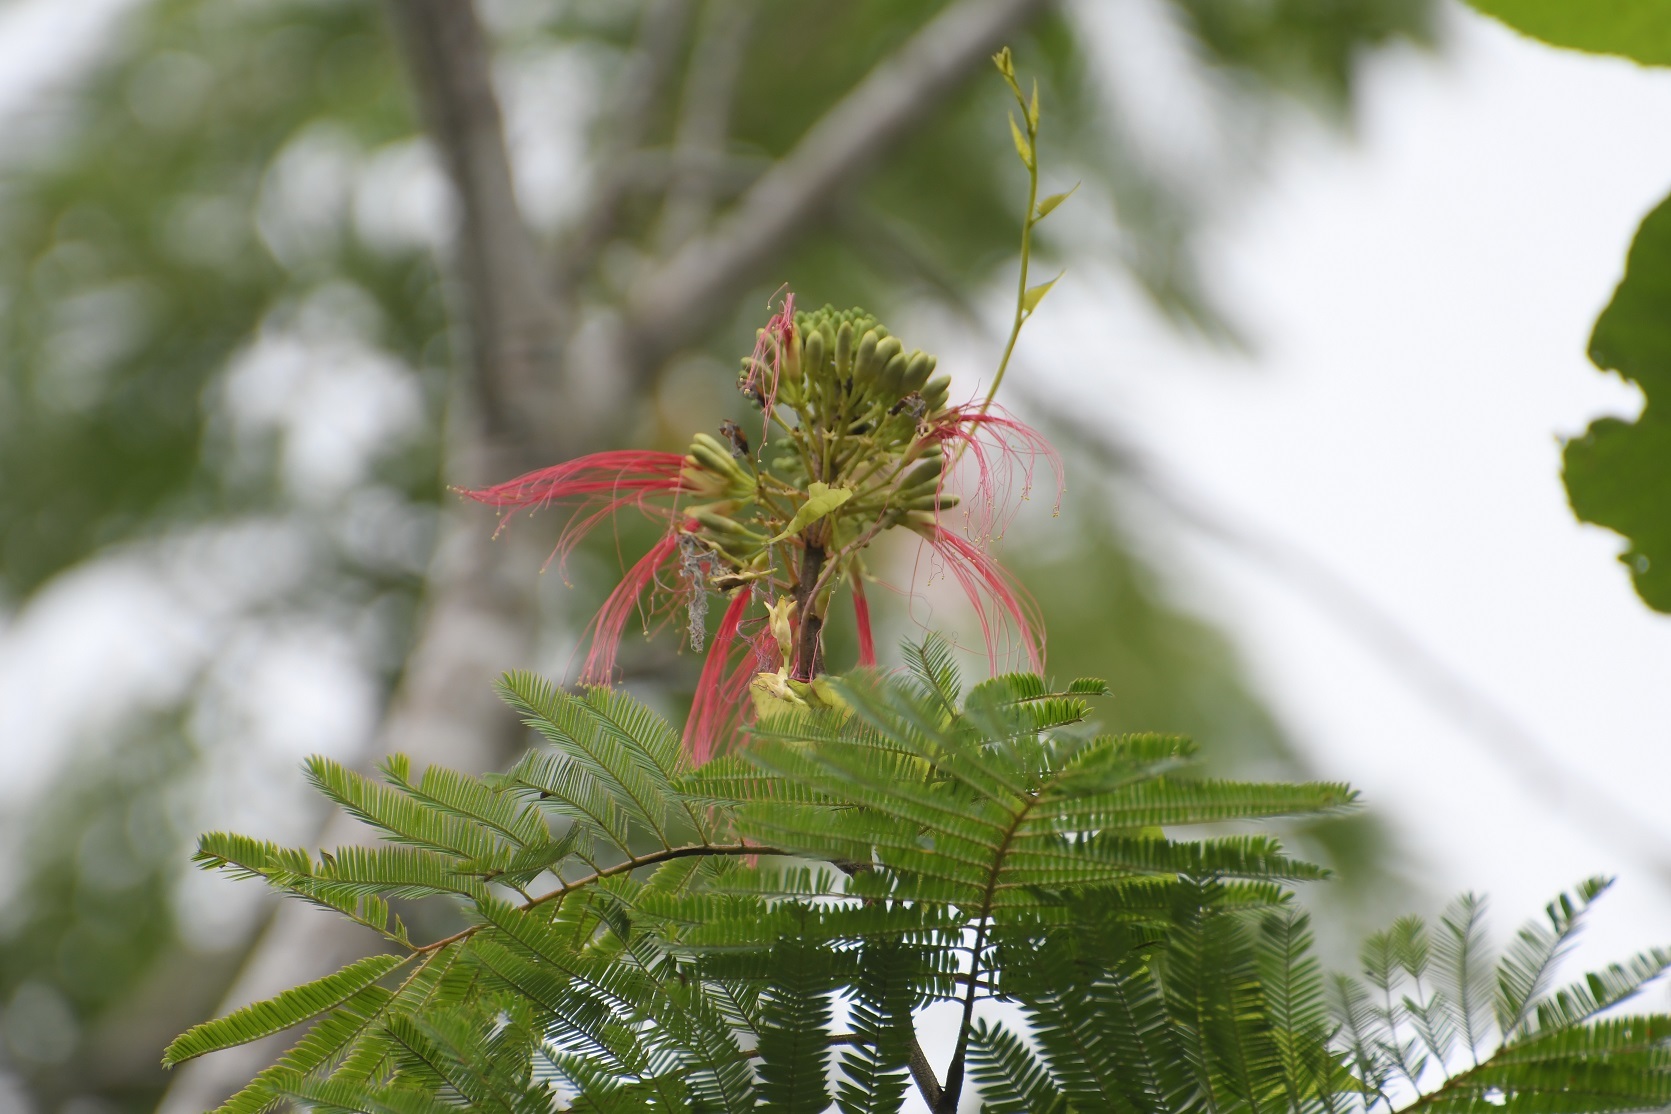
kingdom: Plantae
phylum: Tracheophyta
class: Magnoliopsida
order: Fabales
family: Fabaceae
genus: Calliandra
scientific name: Calliandra houstoniana
